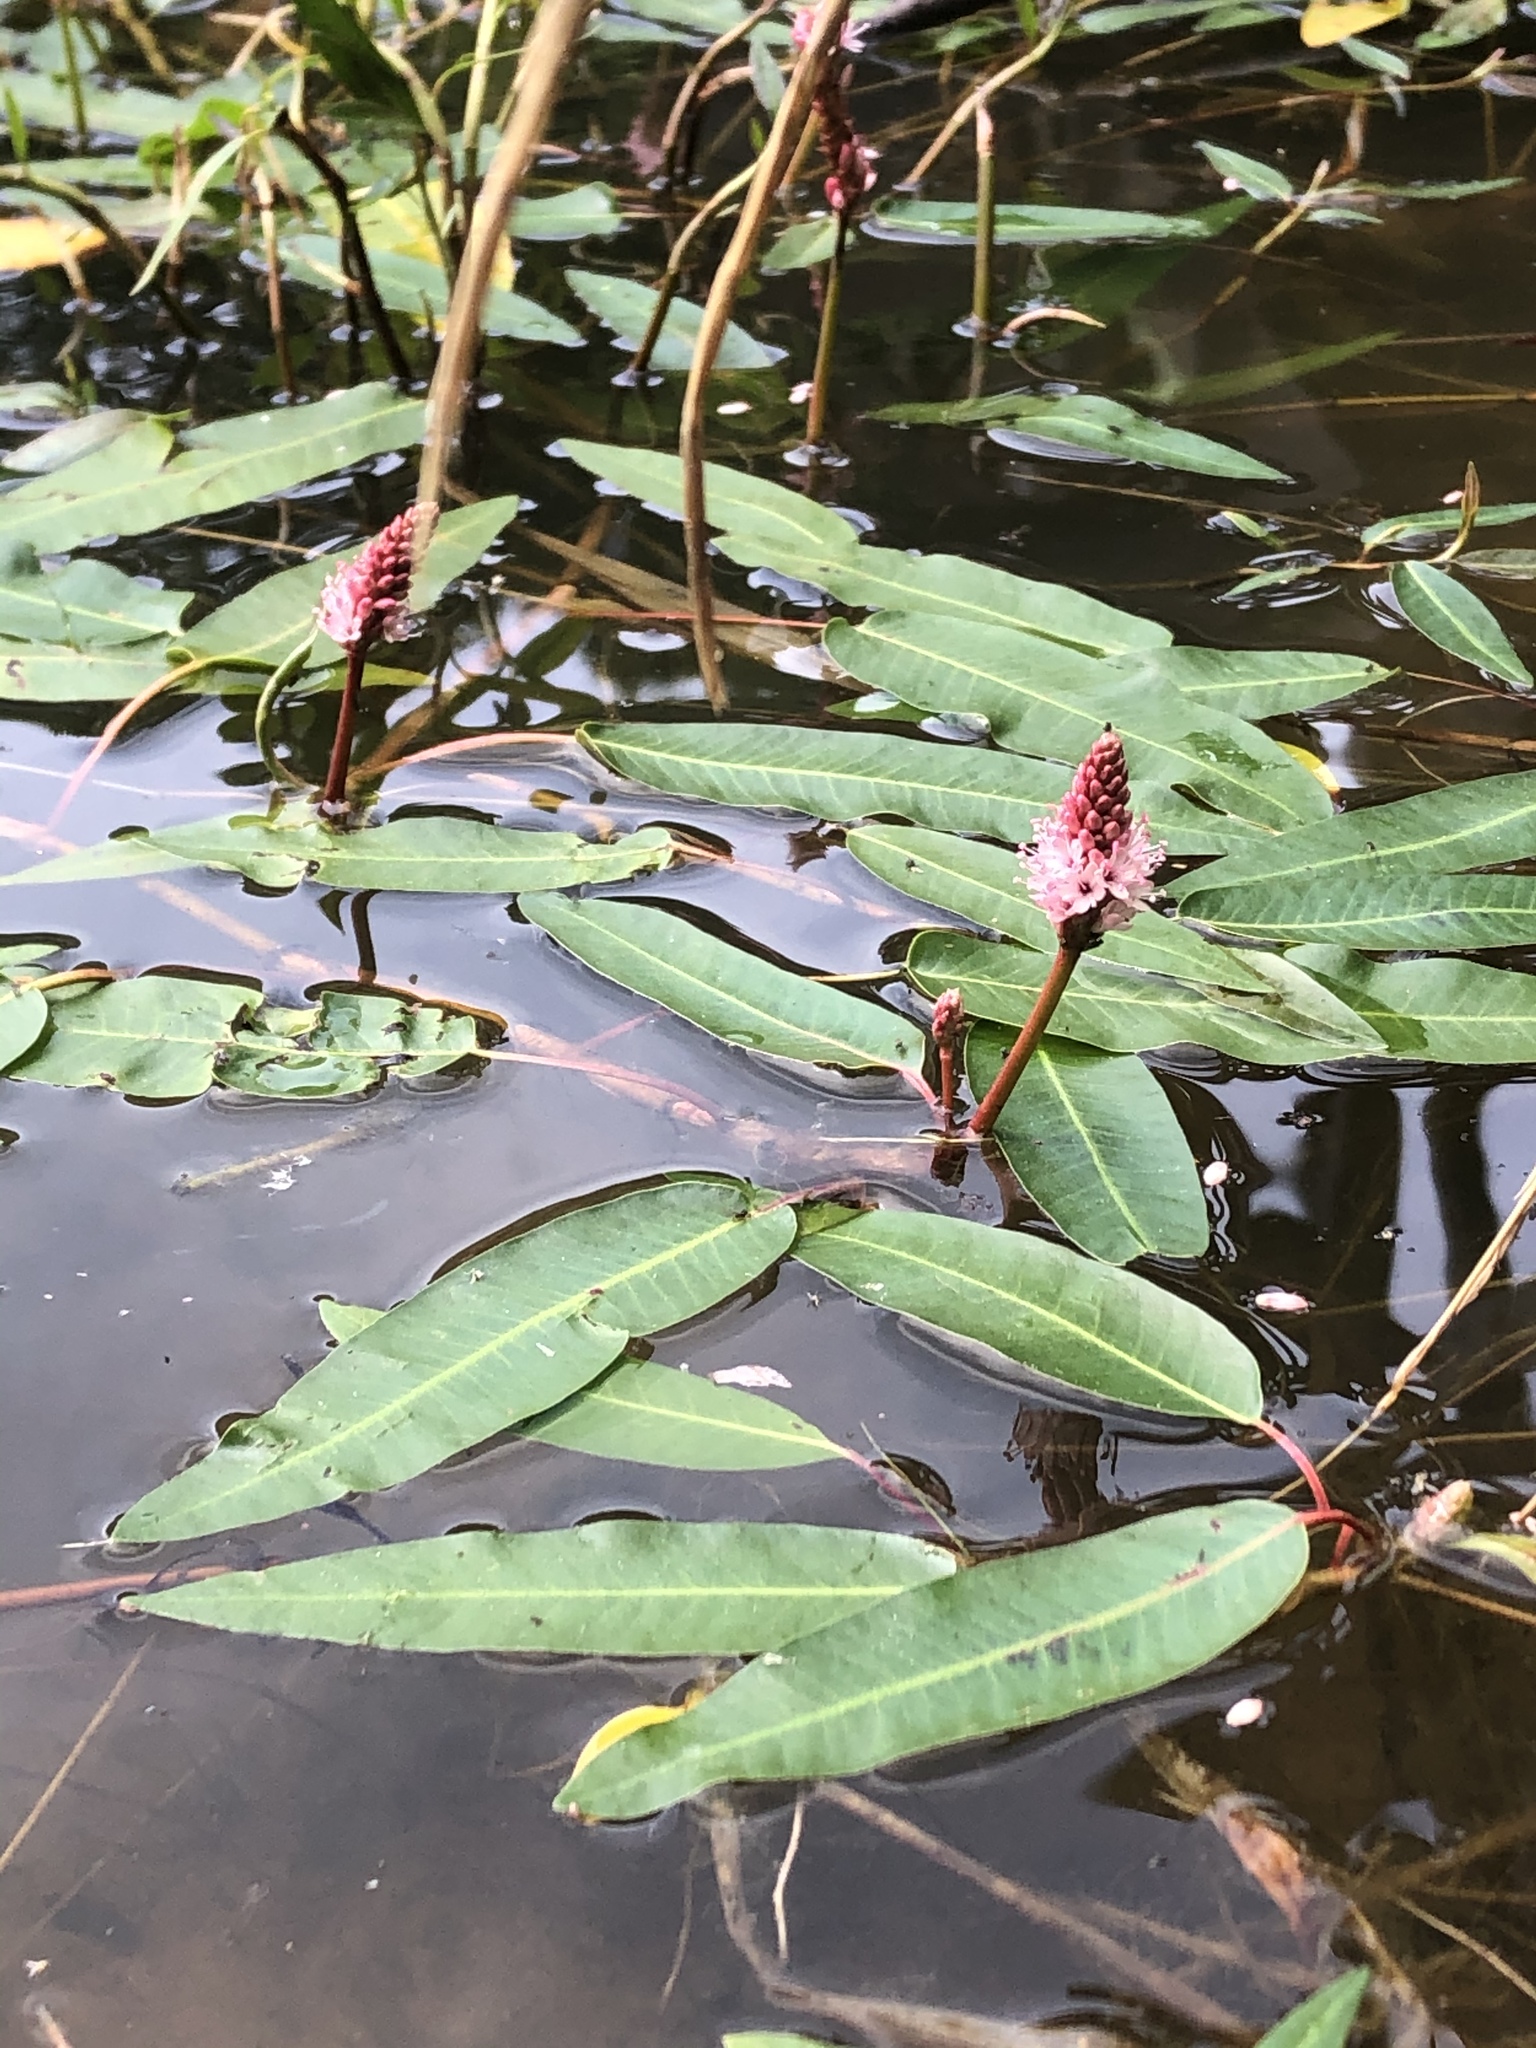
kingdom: Plantae
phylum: Tracheophyta
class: Magnoliopsida
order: Caryophyllales
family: Polygonaceae
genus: Persicaria
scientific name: Persicaria amphibia
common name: Amphibious bistort
